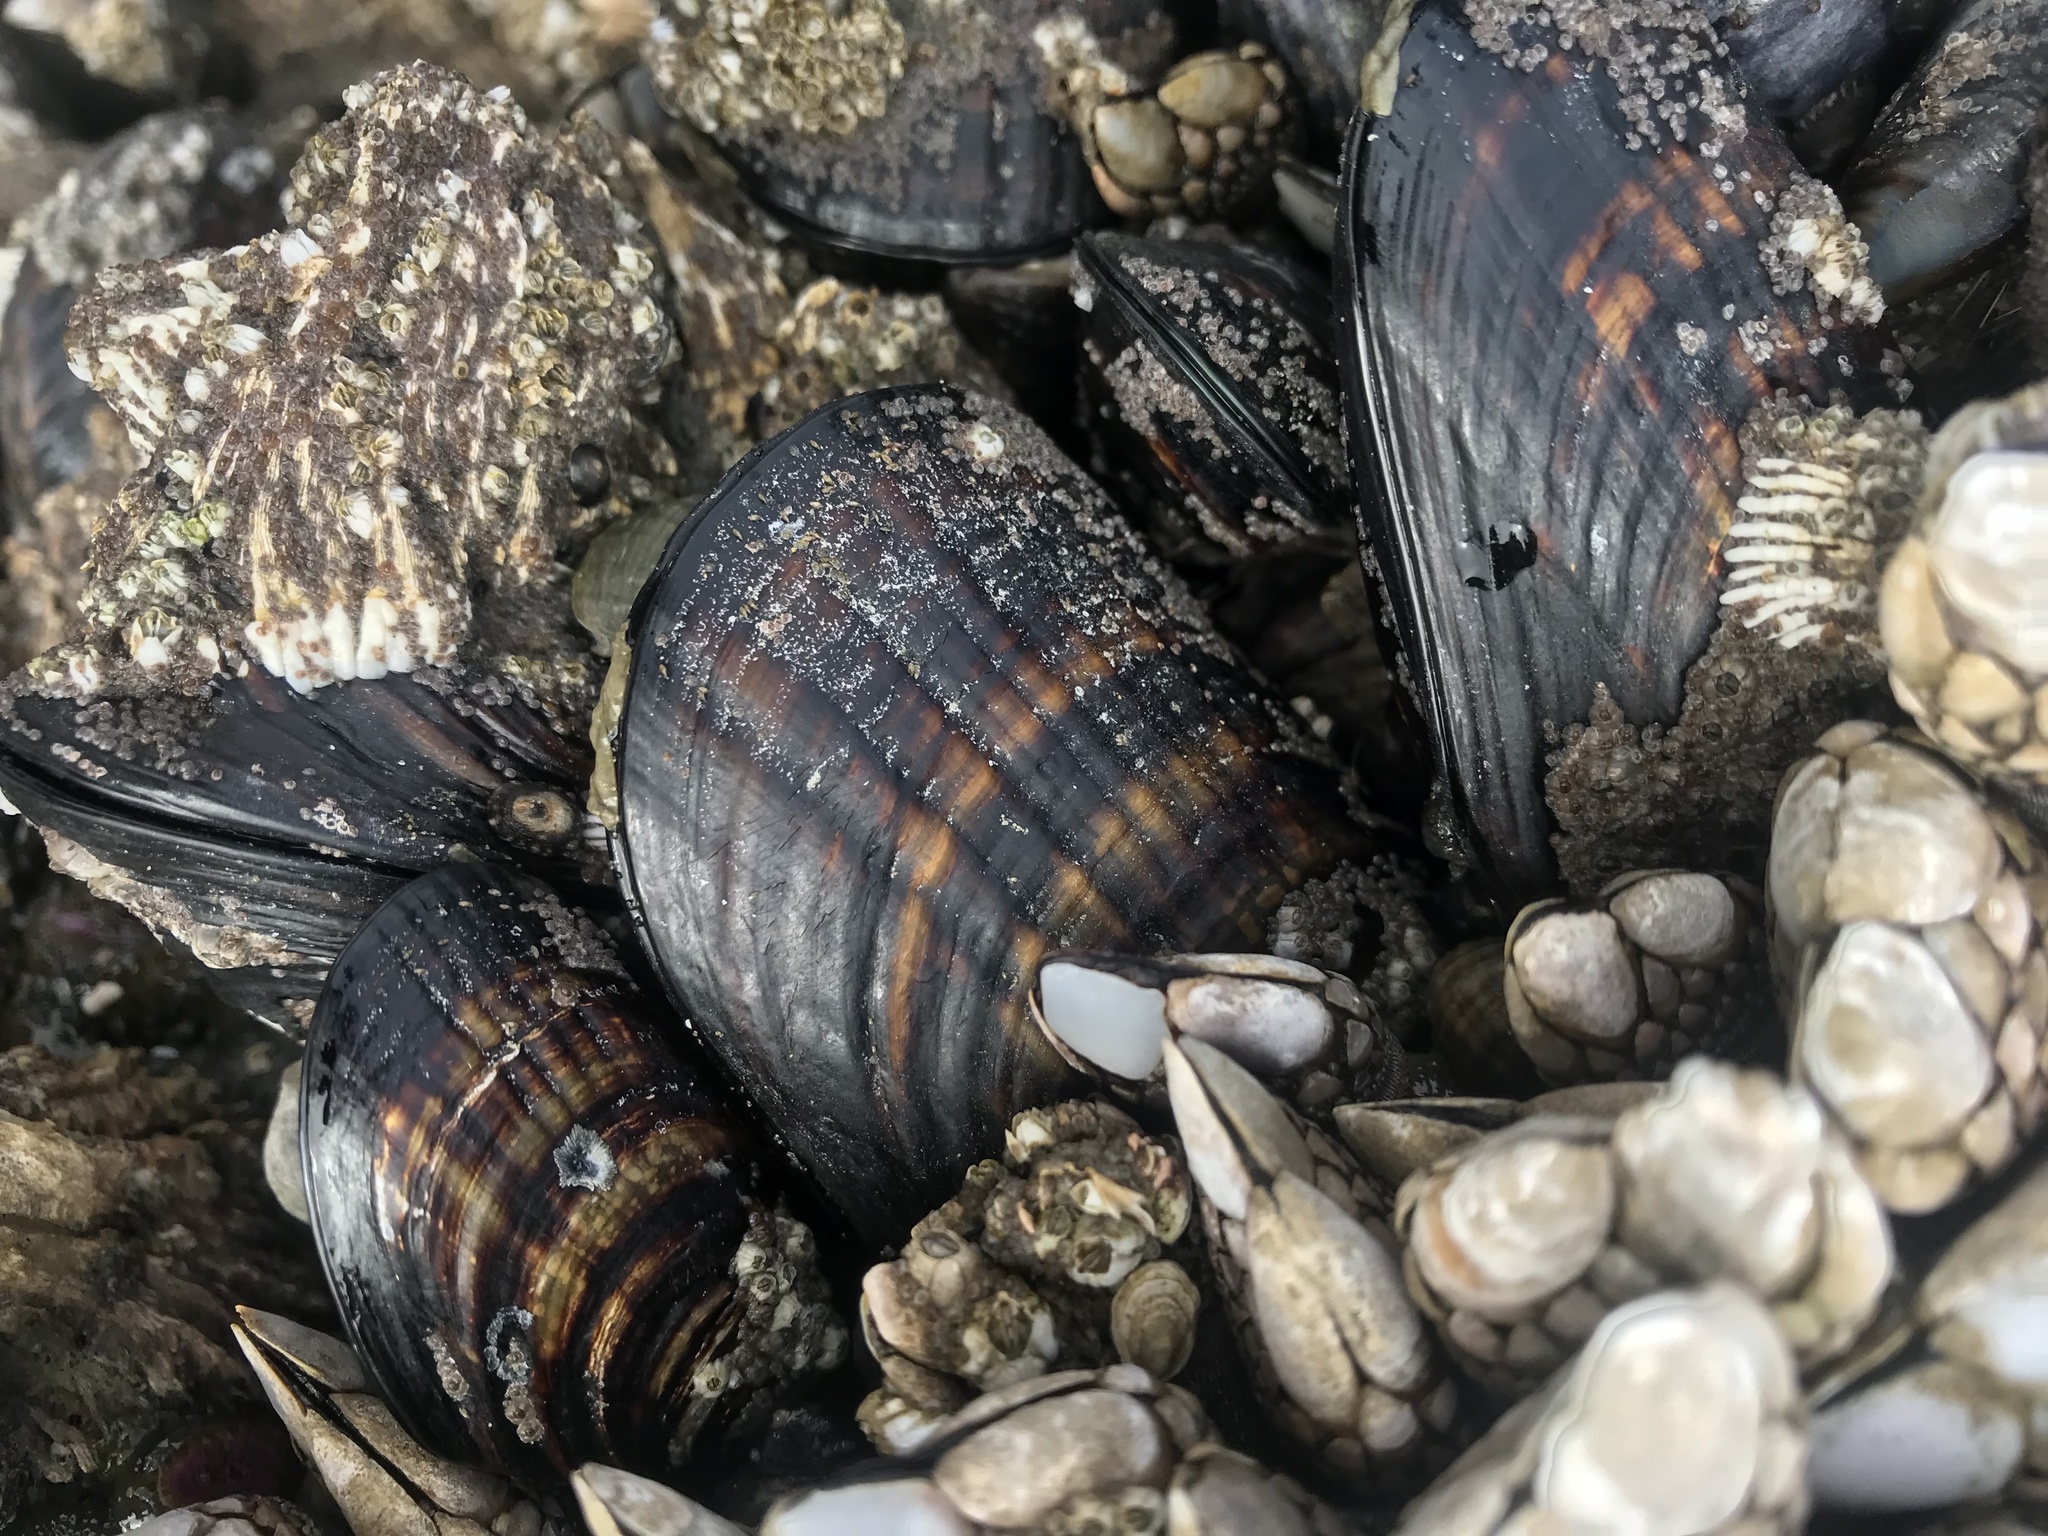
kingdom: Animalia
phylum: Mollusca
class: Bivalvia
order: Mytilida
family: Mytilidae
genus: Mytilus
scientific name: Mytilus californianus
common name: California mussel
